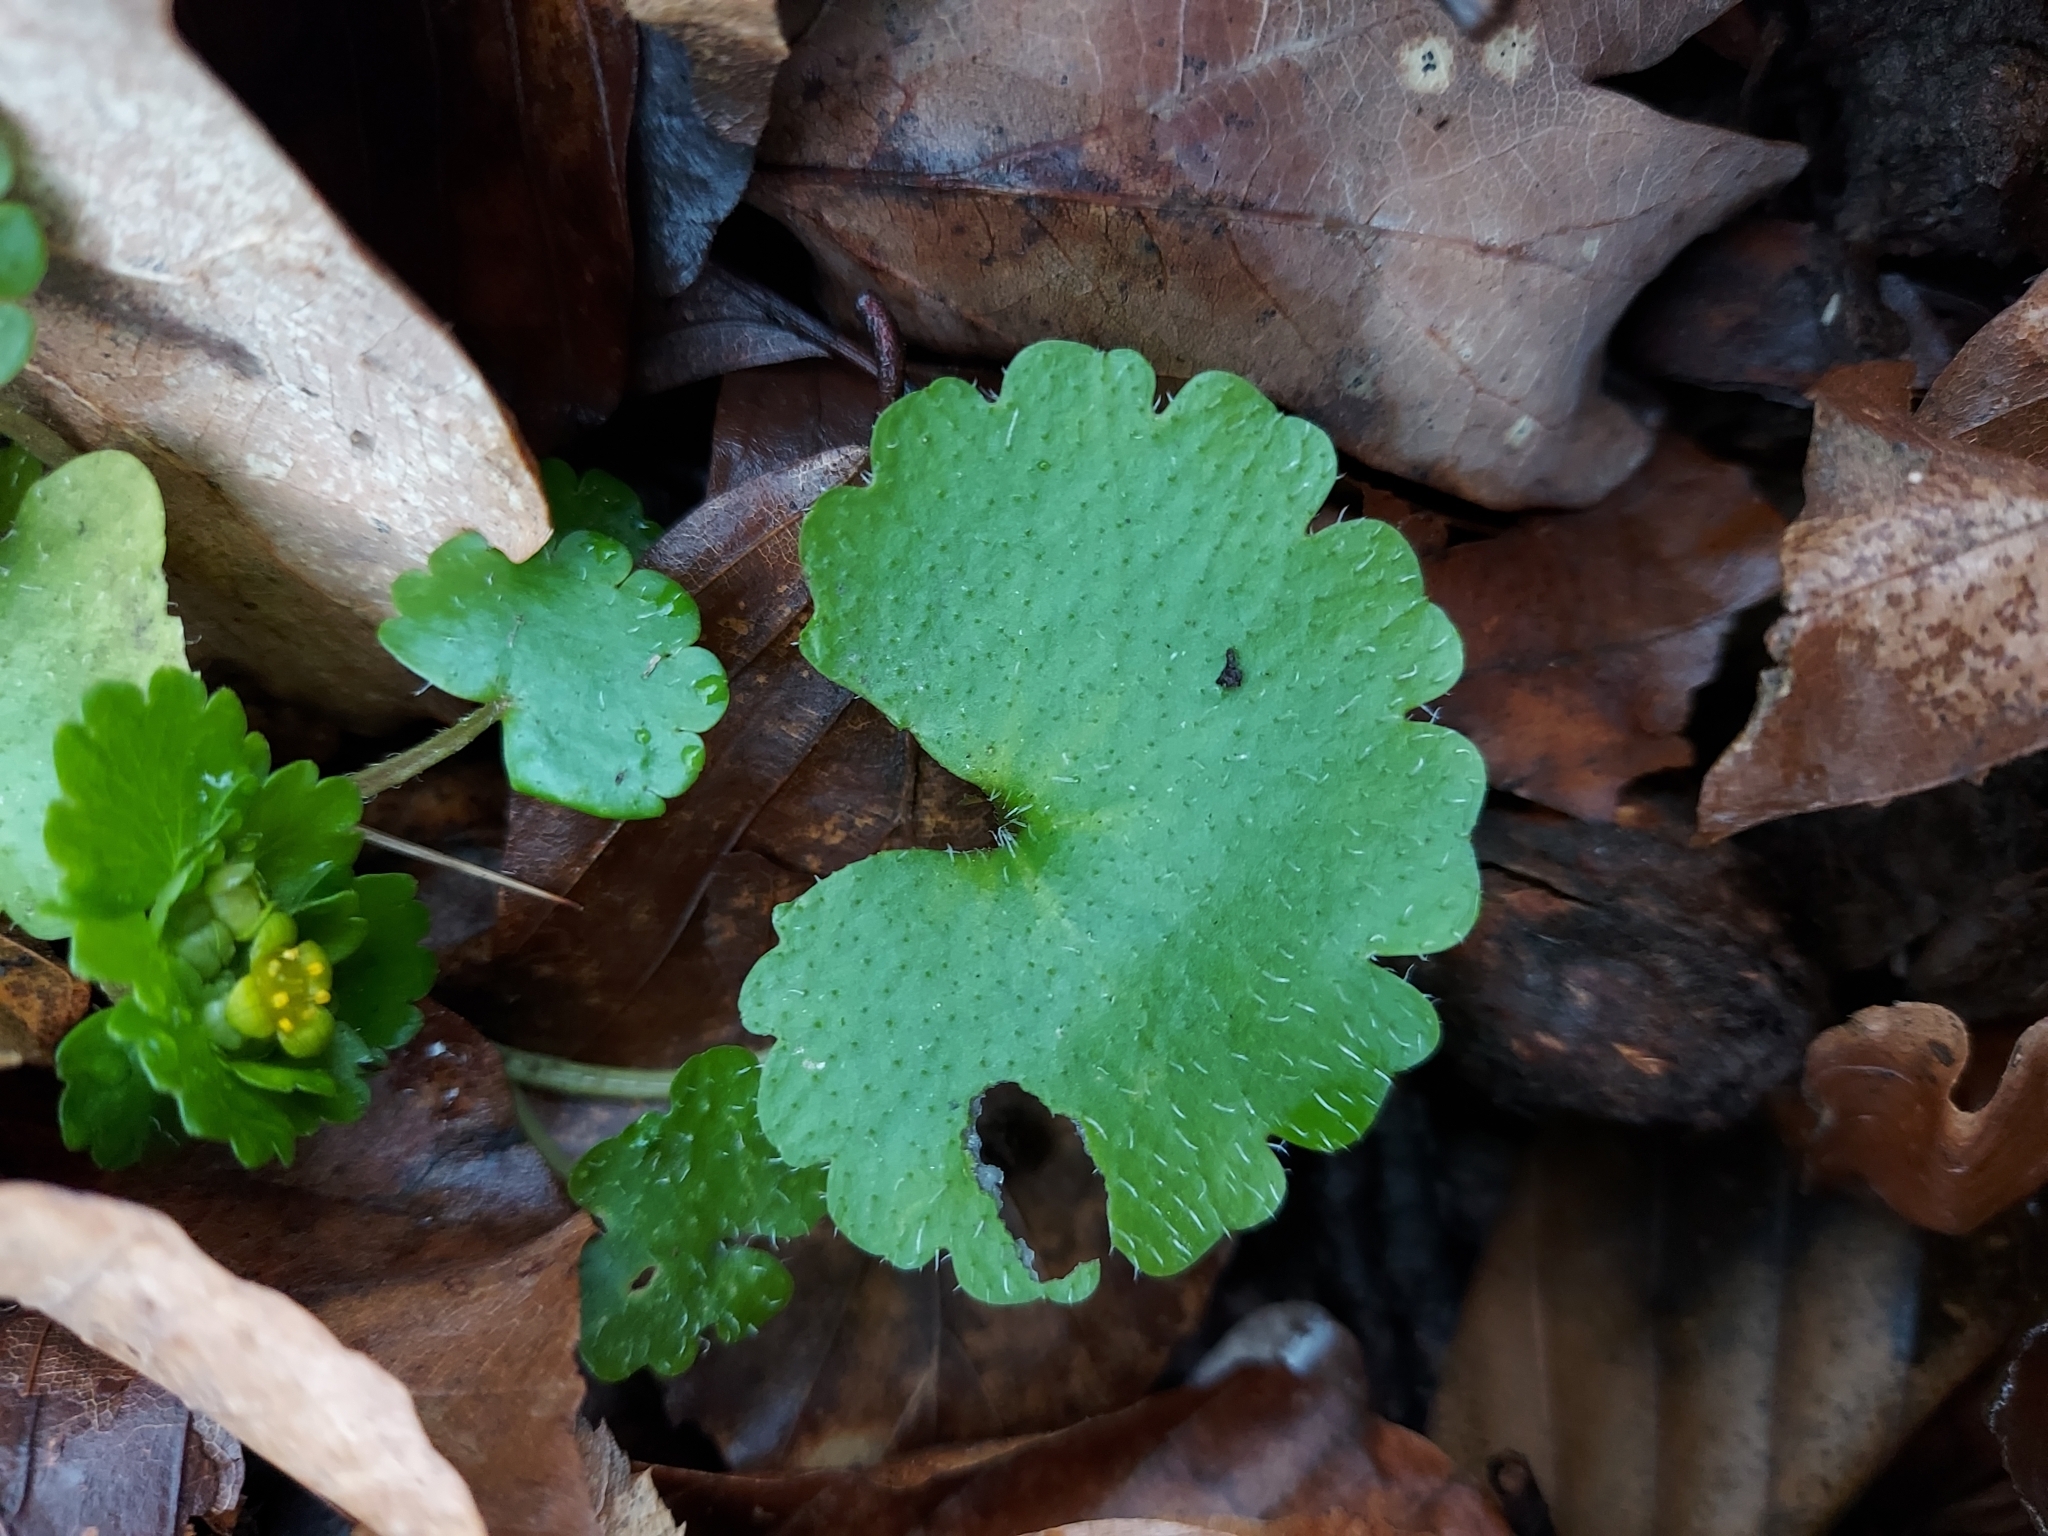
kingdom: Plantae
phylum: Tracheophyta
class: Magnoliopsida
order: Saxifragales
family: Saxifragaceae
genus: Chrysosplenium
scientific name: Chrysosplenium alternifolium
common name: Alternate-leaved golden-saxifrage
